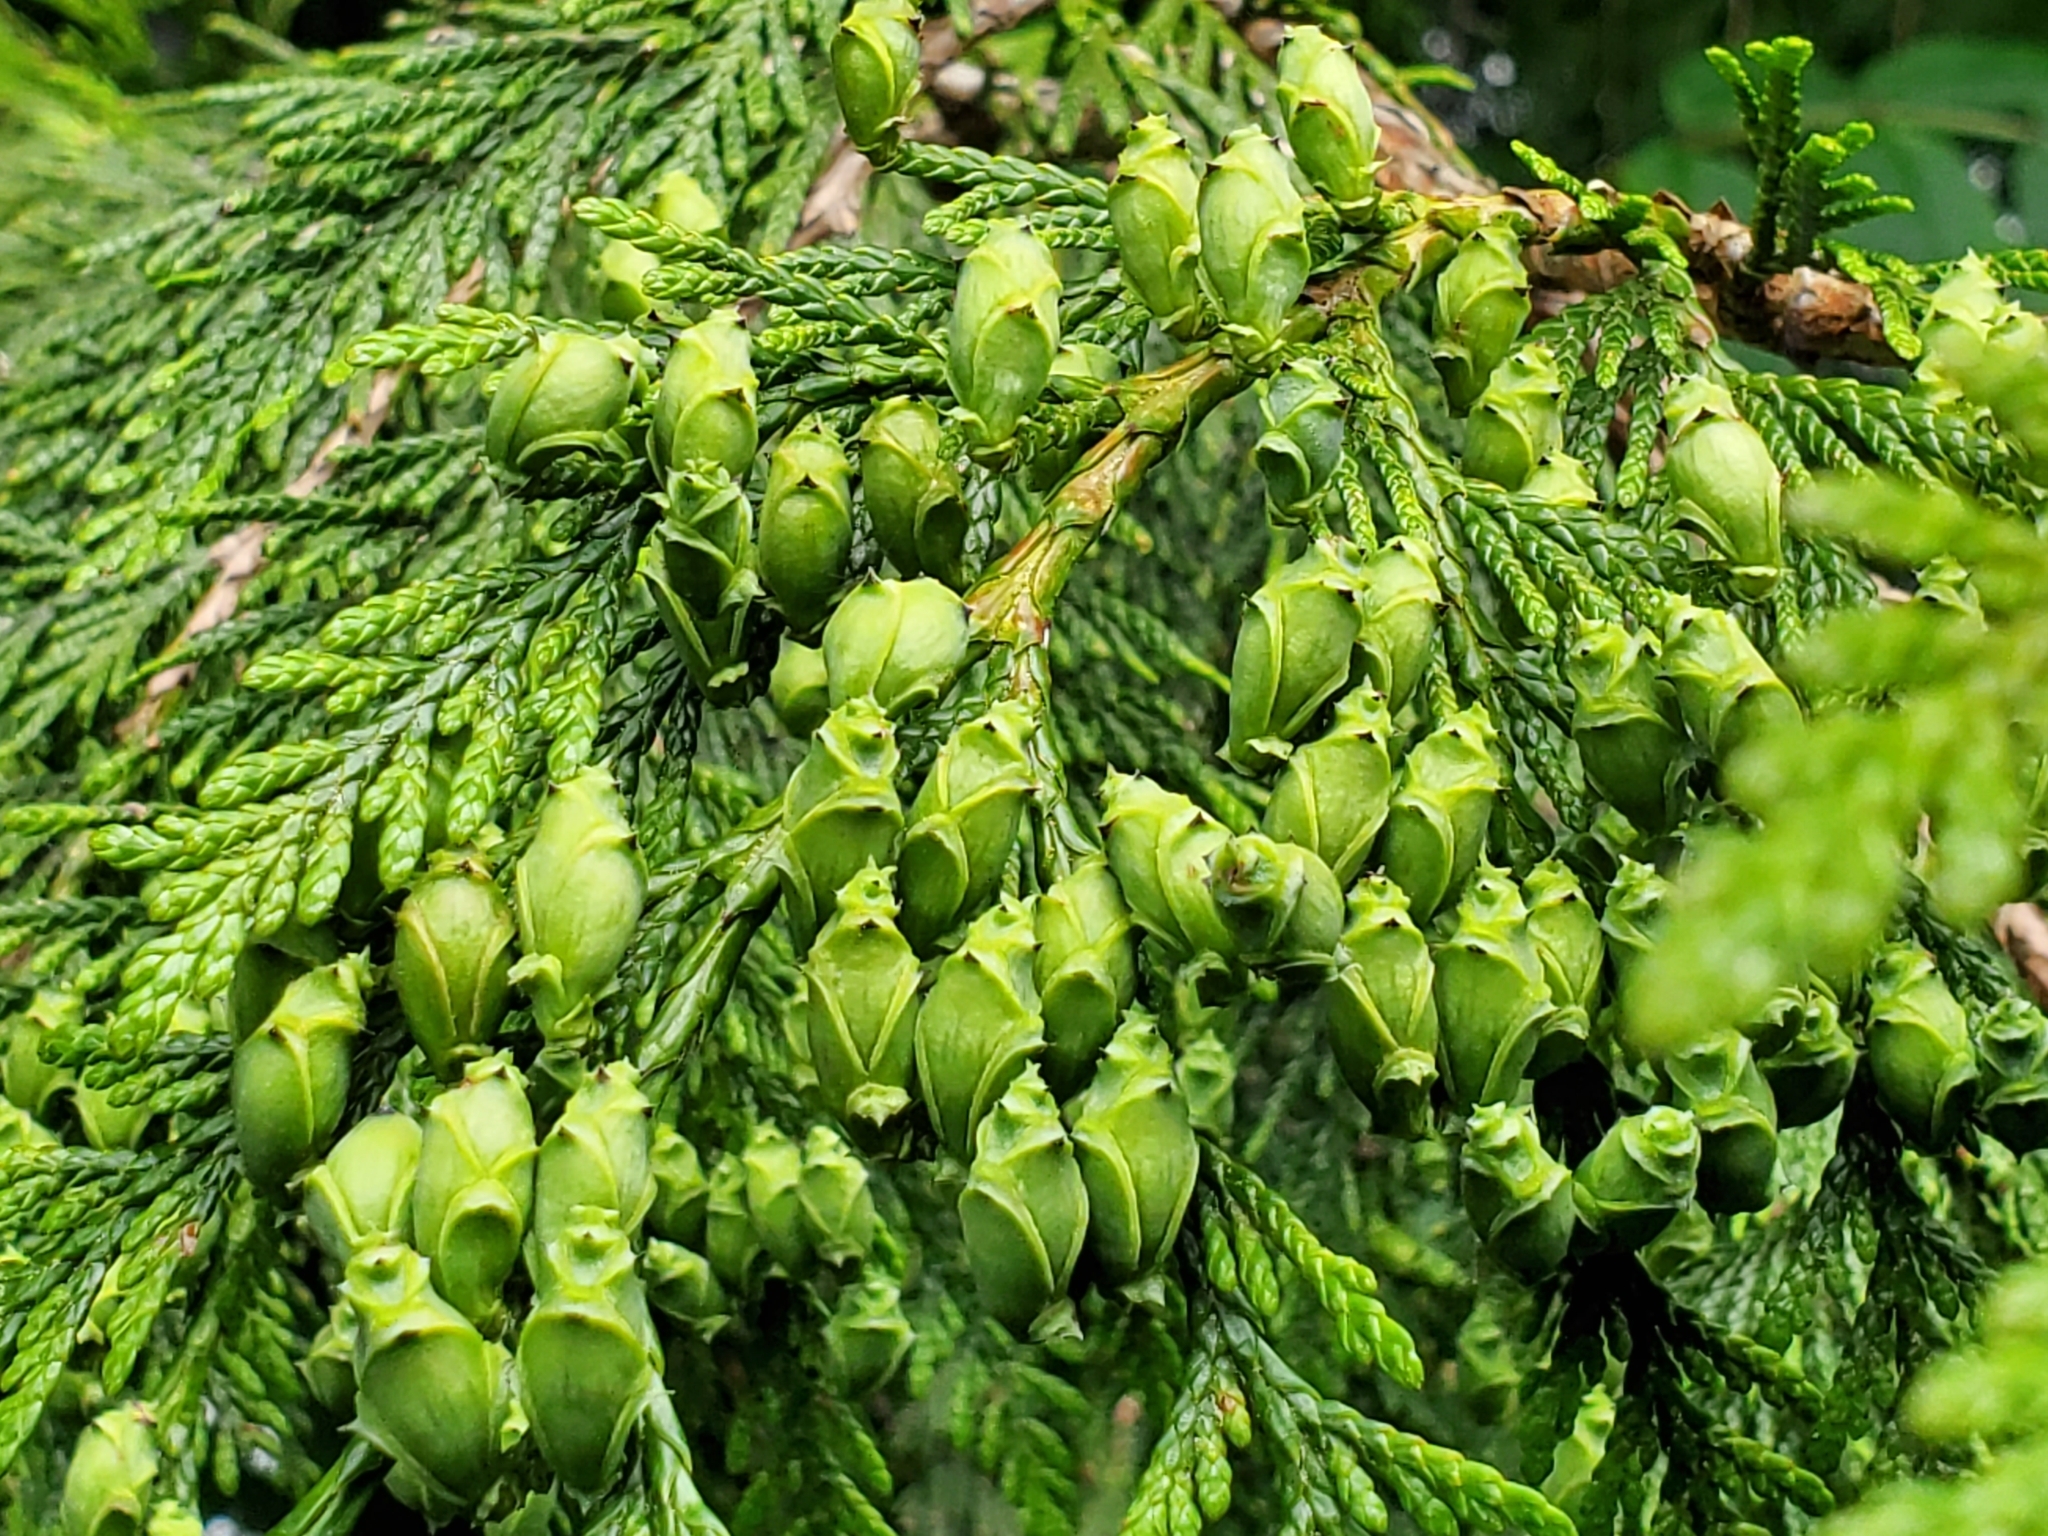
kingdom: Plantae
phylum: Tracheophyta
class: Pinopsida
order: Pinales
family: Cupressaceae
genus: Thuja
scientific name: Thuja plicata
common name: Western red-cedar
